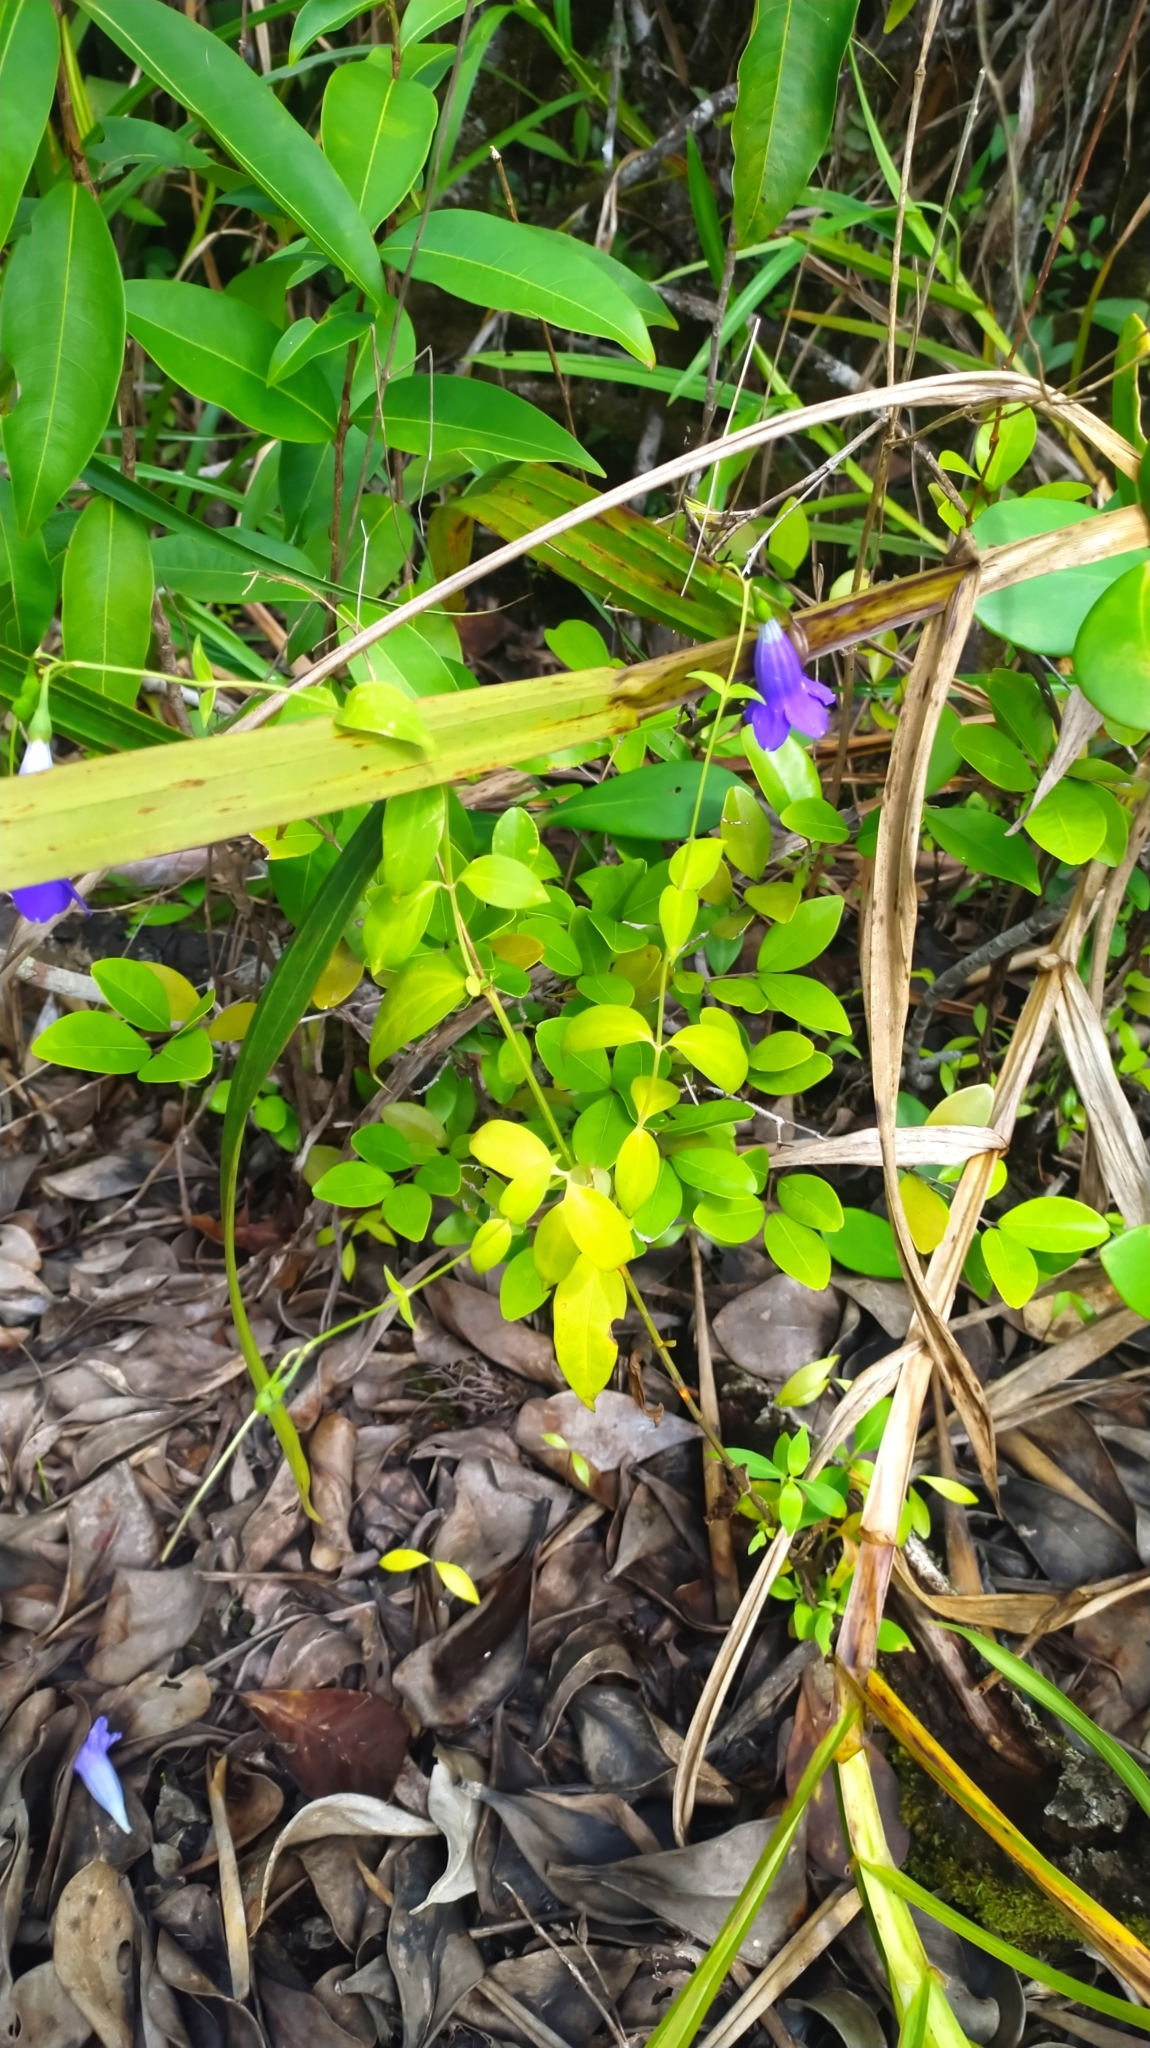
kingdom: Plantae
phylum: Tracheophyta
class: Magnoliopsida
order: Gentianales
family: Gentianaceae
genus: Chelonanthus
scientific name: Chelonanthus purpurascens
